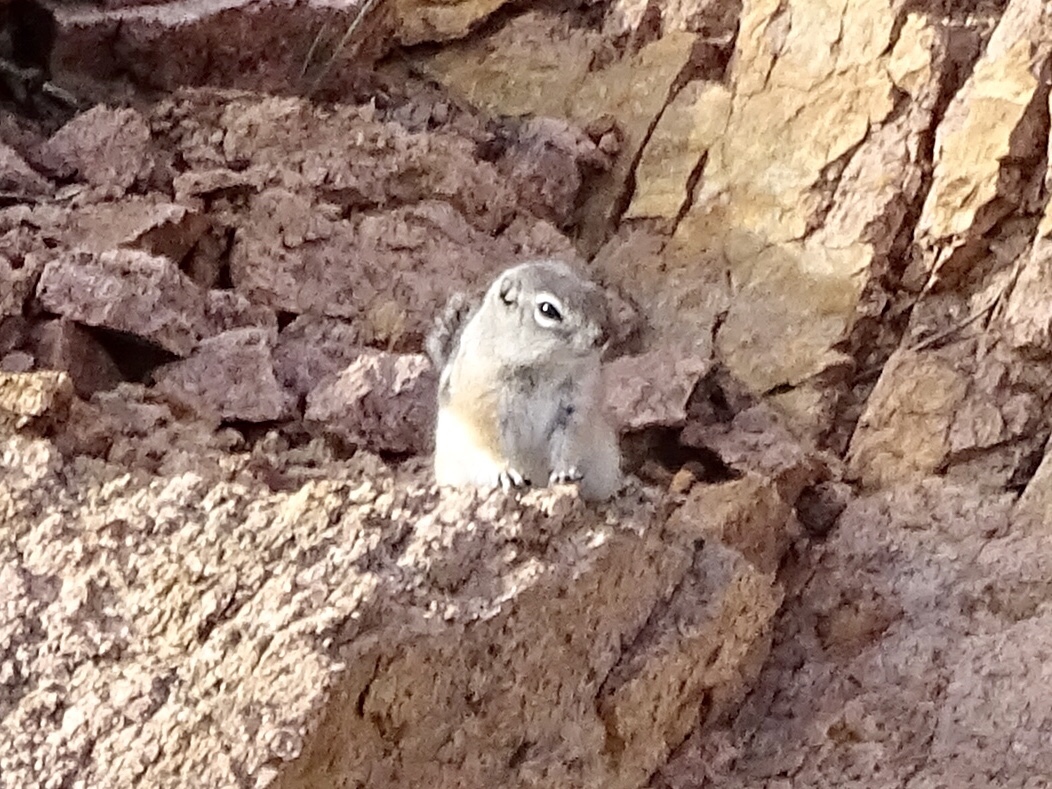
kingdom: Animalia
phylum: Chordata
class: Mammalia
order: Rodentia
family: Sciuridae
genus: Ammospermophilus
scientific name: Ammospermophilus interpres
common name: Texas antelope squirrel
